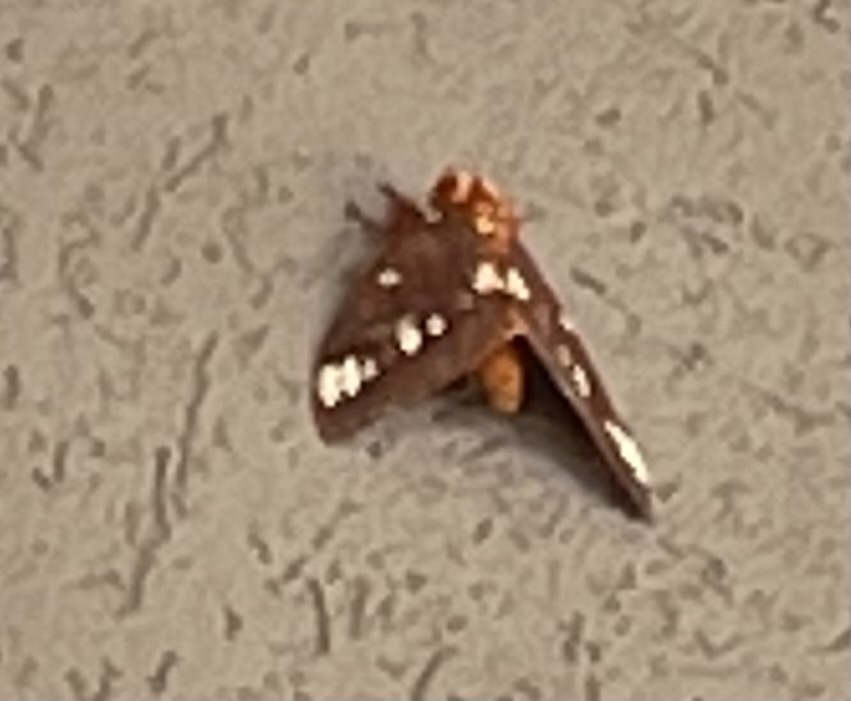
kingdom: Animalia
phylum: Arthropoda
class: Insecta
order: Lepidoptera
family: Saturniidae
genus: Citheronia
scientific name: Citheronia regalis
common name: Hickory horned devil
